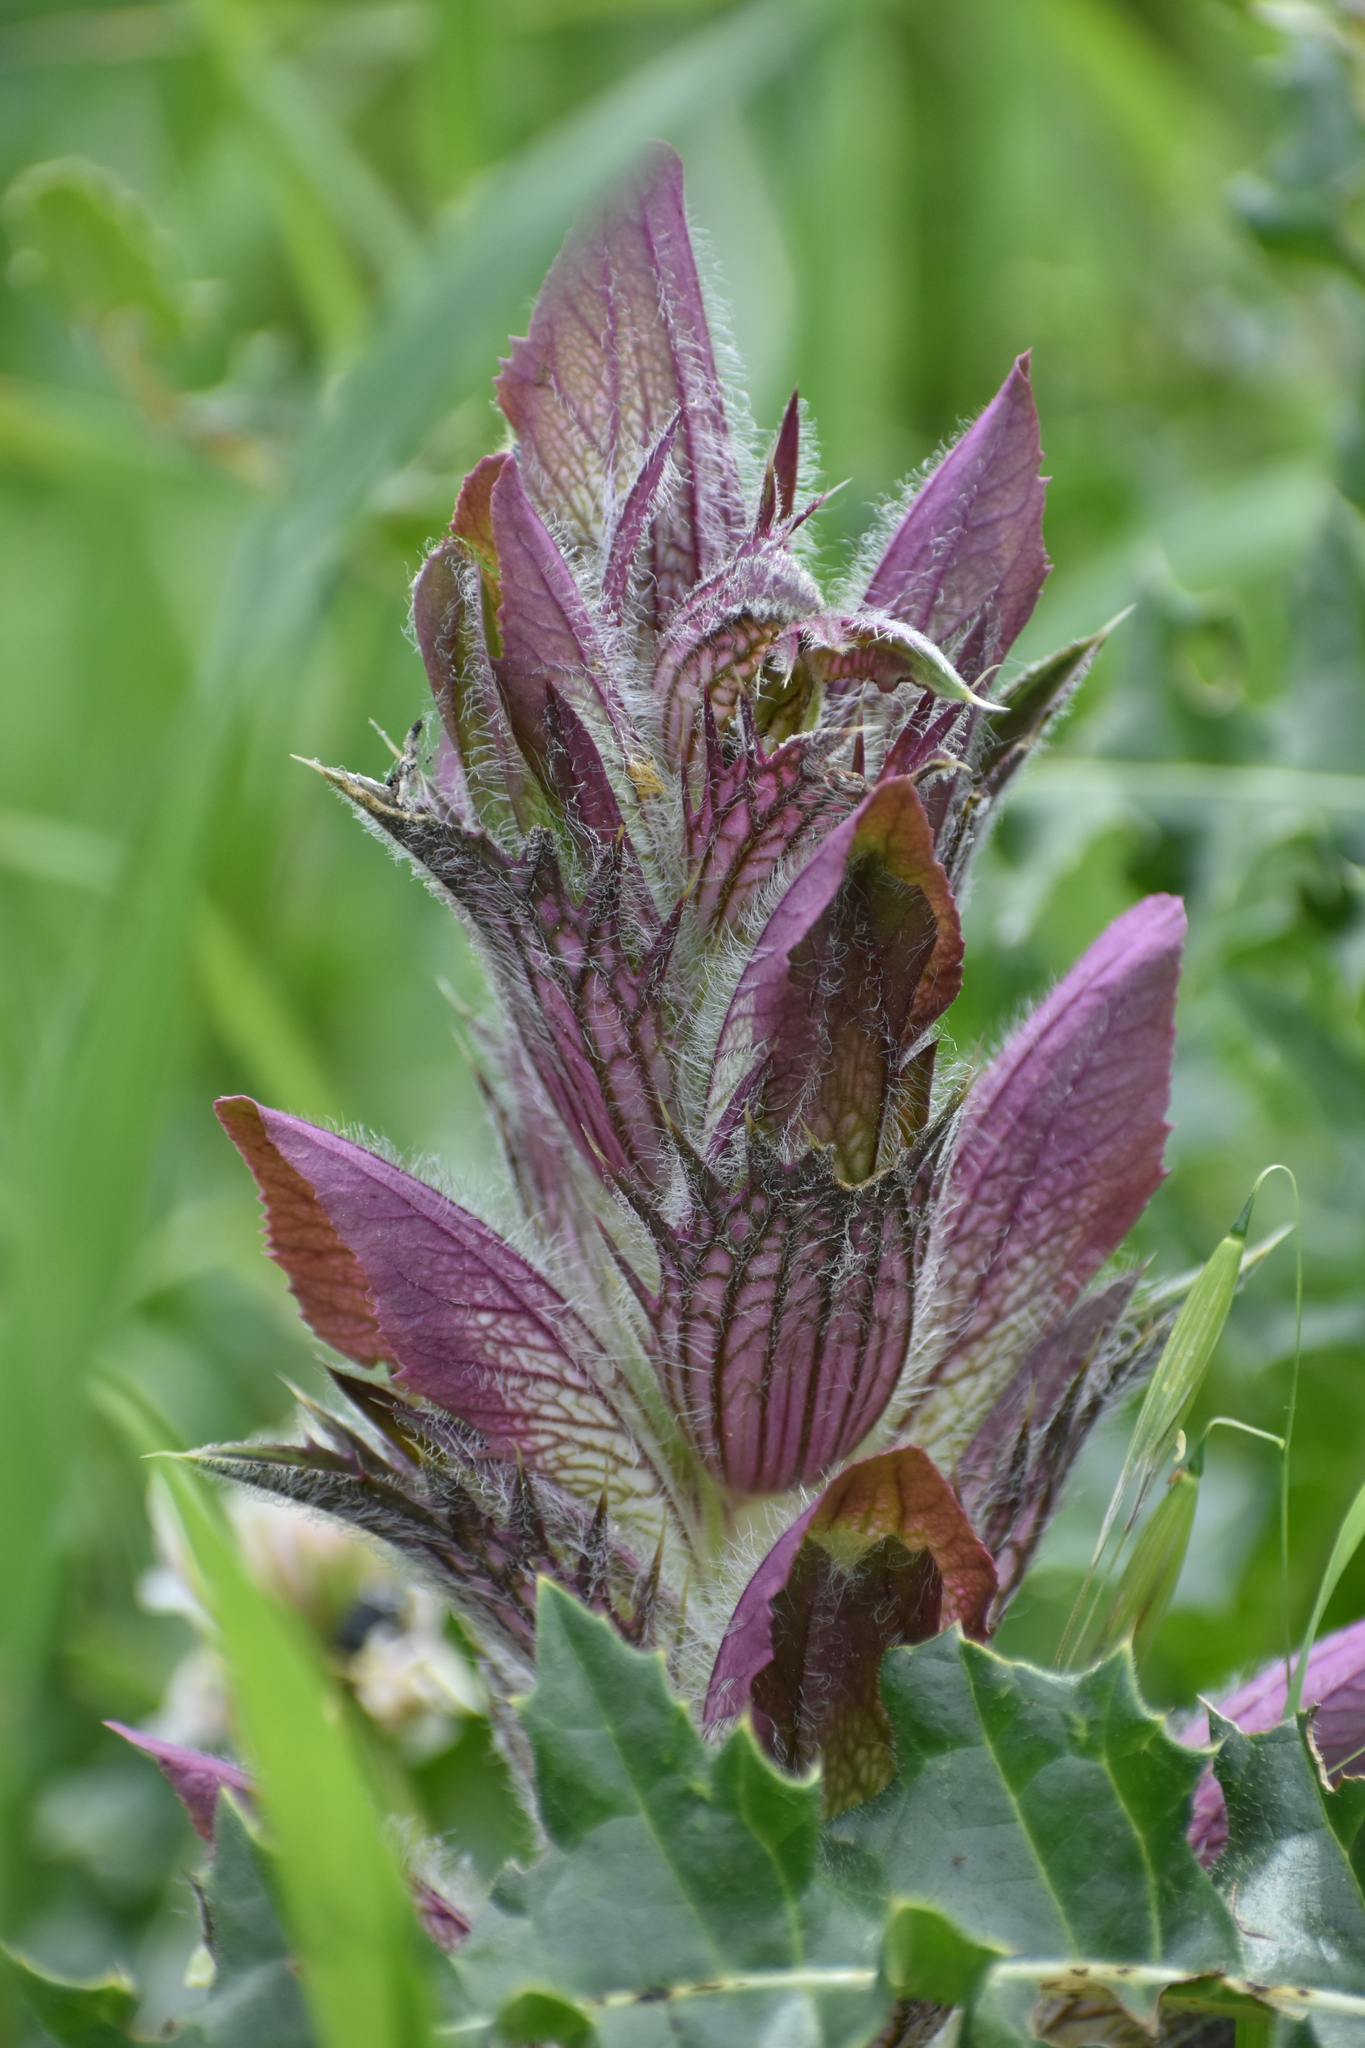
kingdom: Plantae
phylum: Tracheophyta
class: Magnoliopsida
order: Lamiales
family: Acanthaceae
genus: Acanthus
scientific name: Acanthus hirsutus
